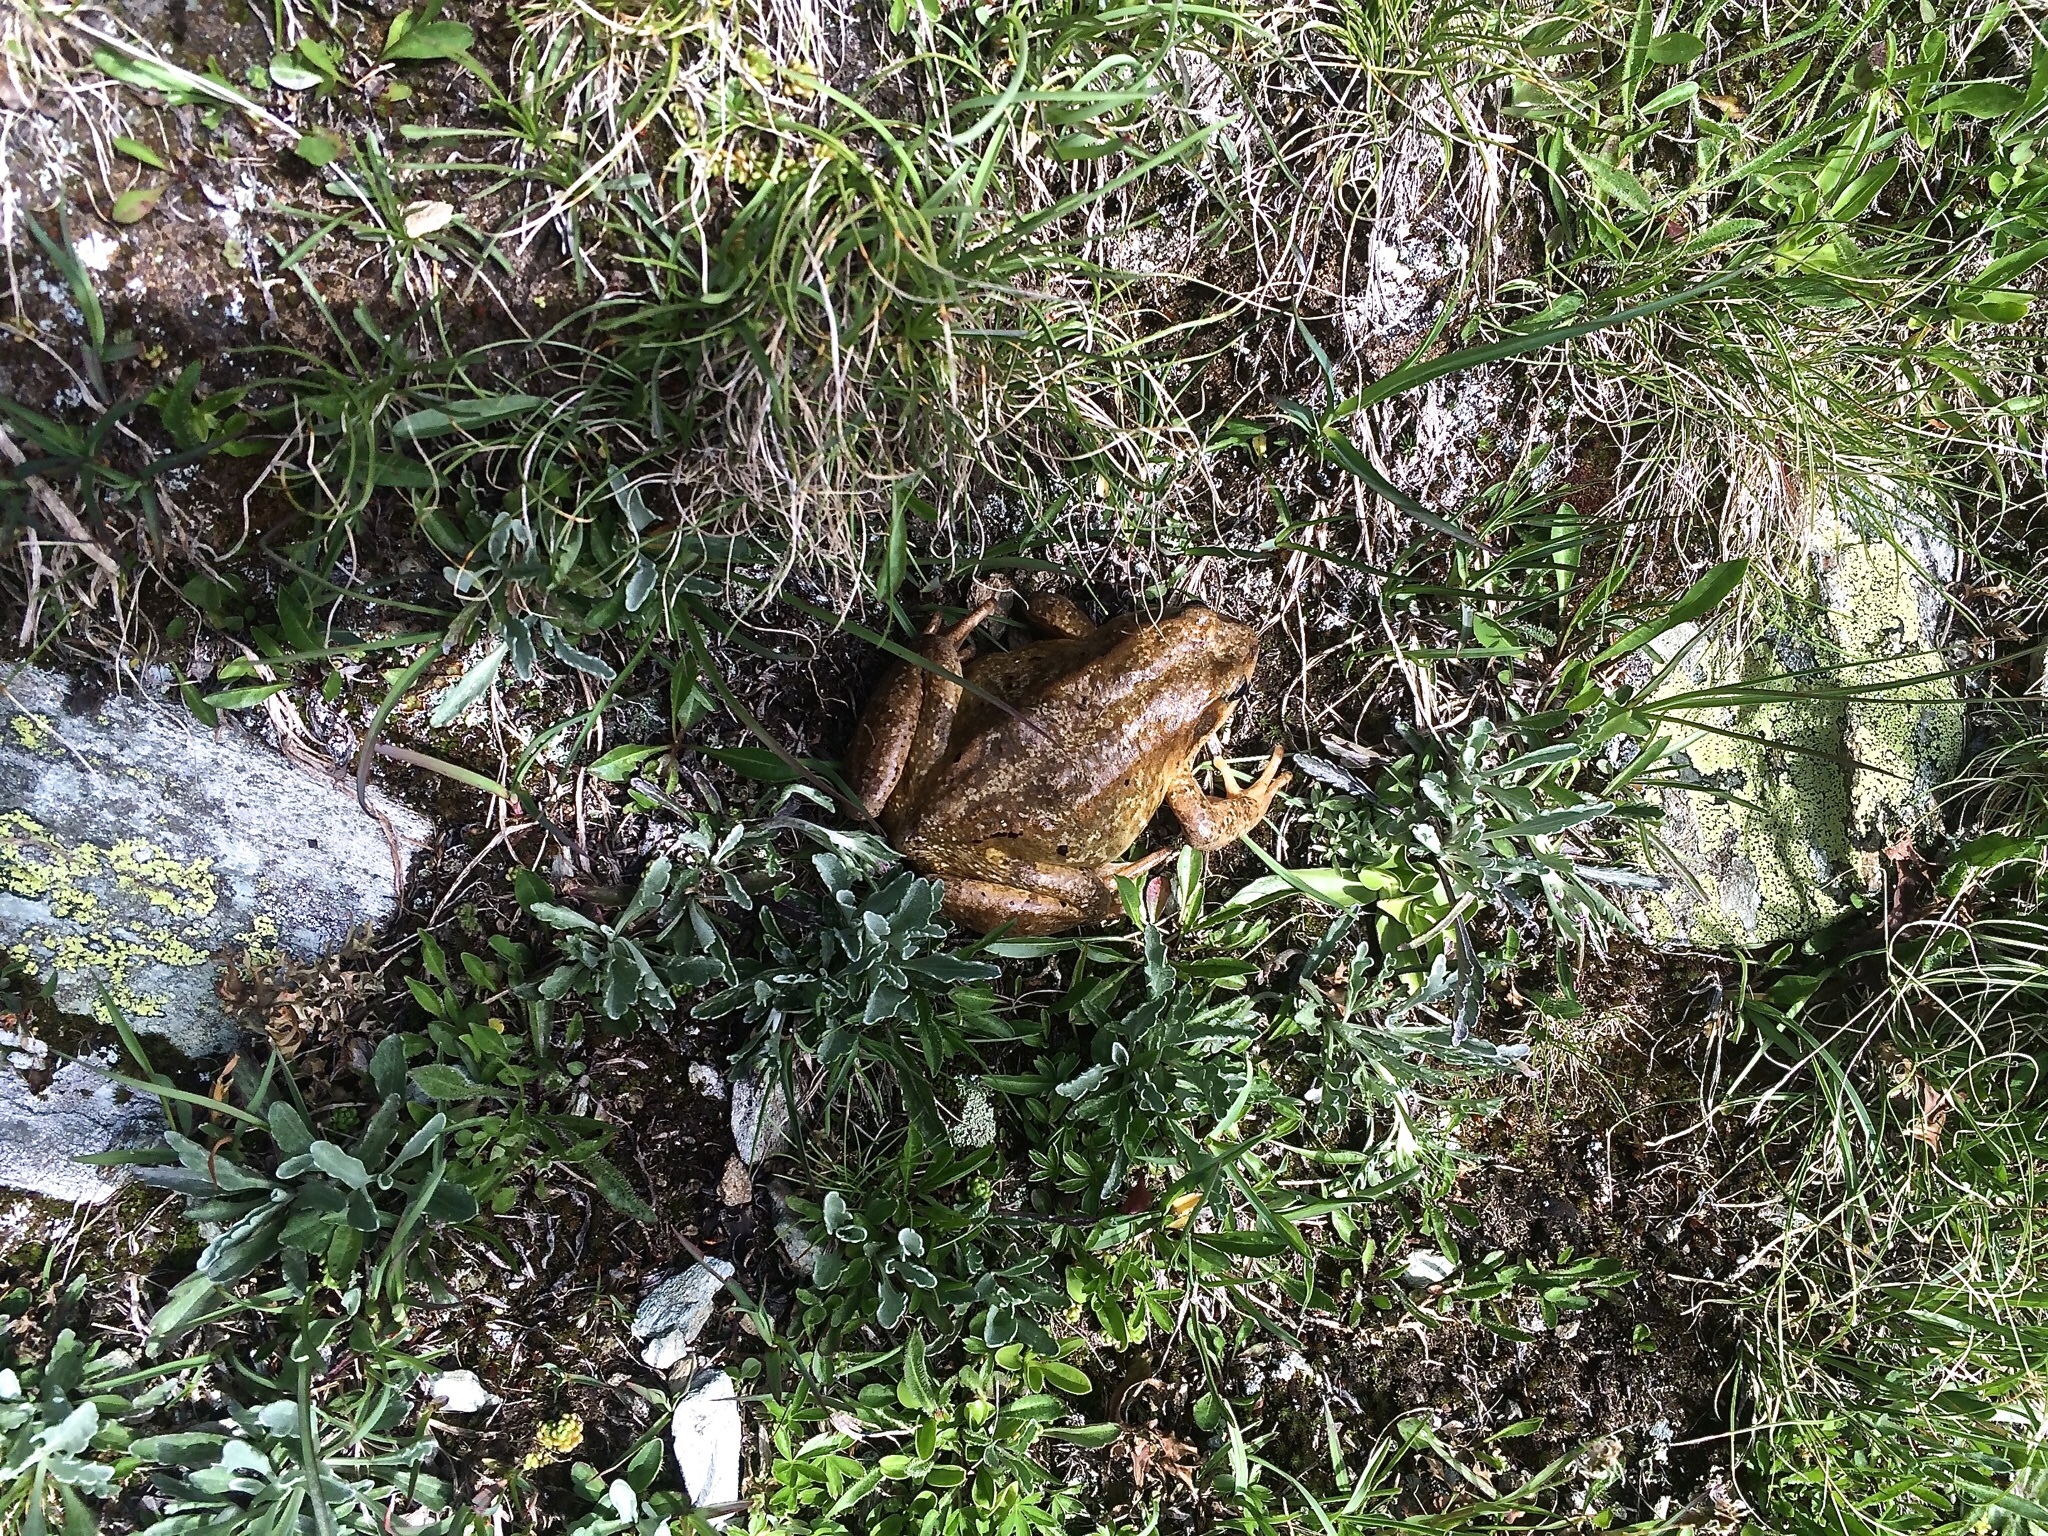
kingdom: Animalia
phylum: Chordata
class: Amphibia
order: Anura
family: Ranidae
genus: Rana
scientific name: Rana temporaria
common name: Common frog
